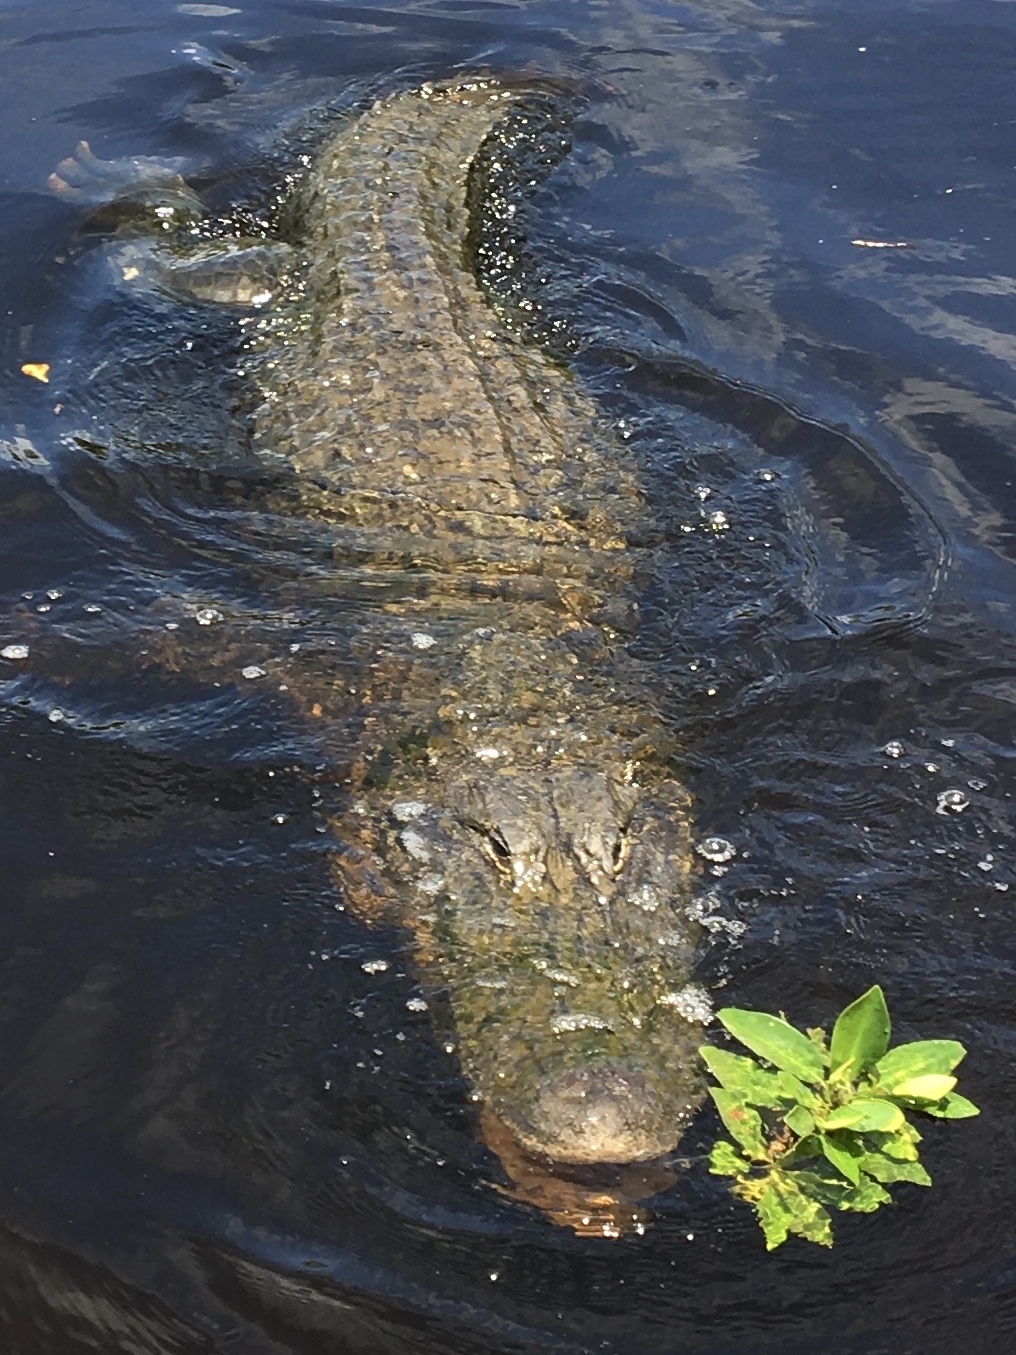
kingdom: Animalia
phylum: Chordata
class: Crocodylia
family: Alligatoridae
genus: Alligator
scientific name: Alligator mississippiensis
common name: American alligator
